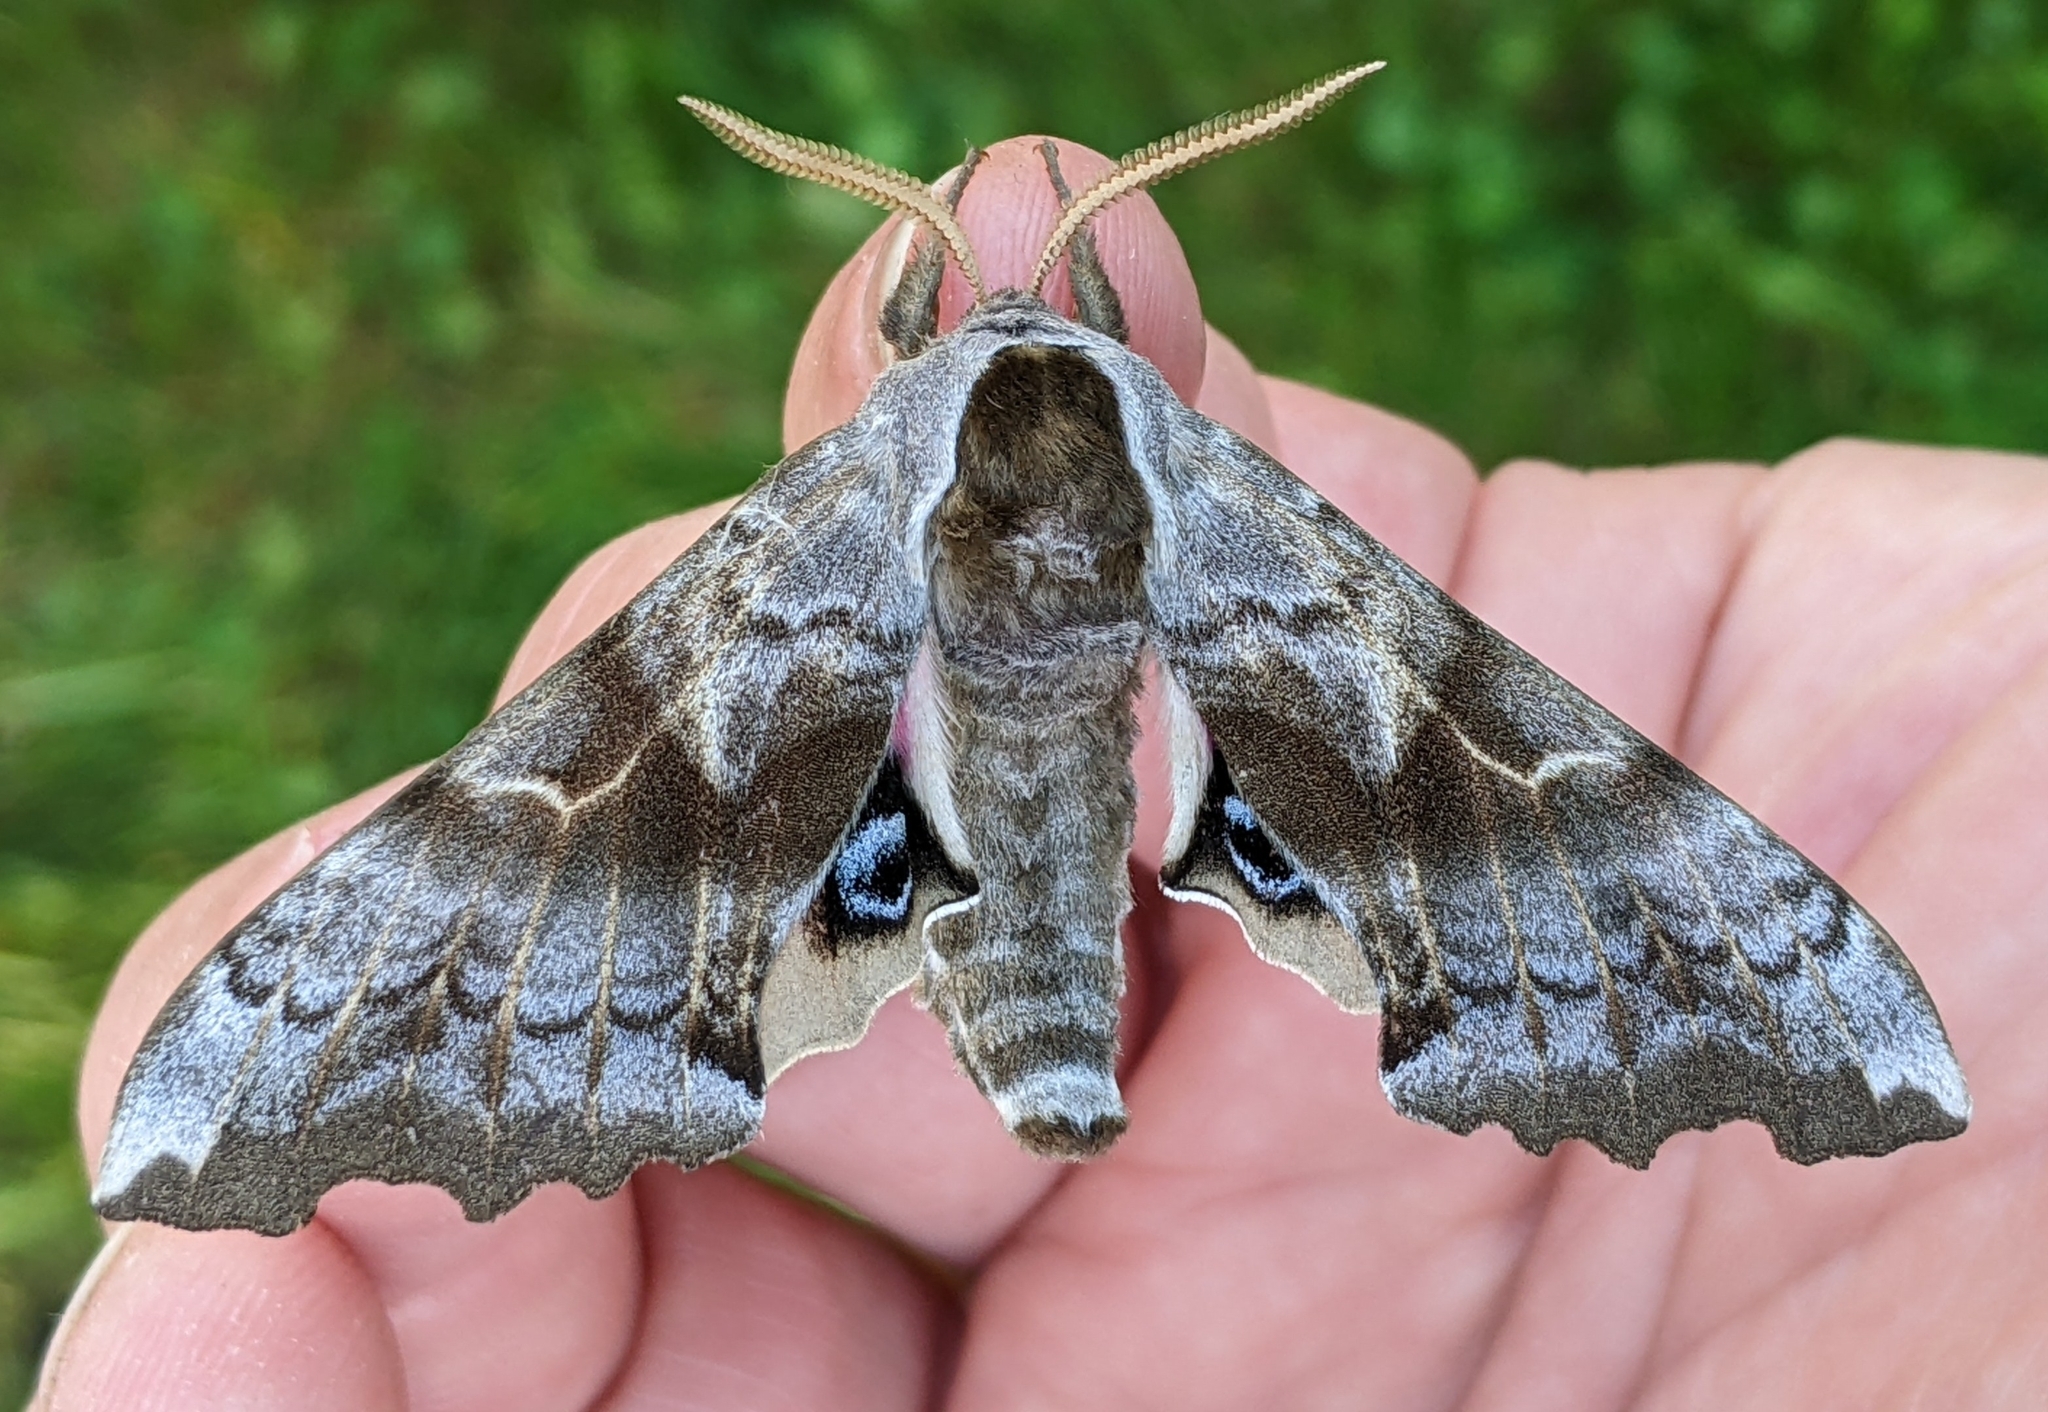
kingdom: Animalia
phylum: Arthropoda
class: Insecta
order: Lepidoptera
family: Sphingidae
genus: Smerinthus
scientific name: Smerinthus cerisyi
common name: Cerisy's sphinx moth
